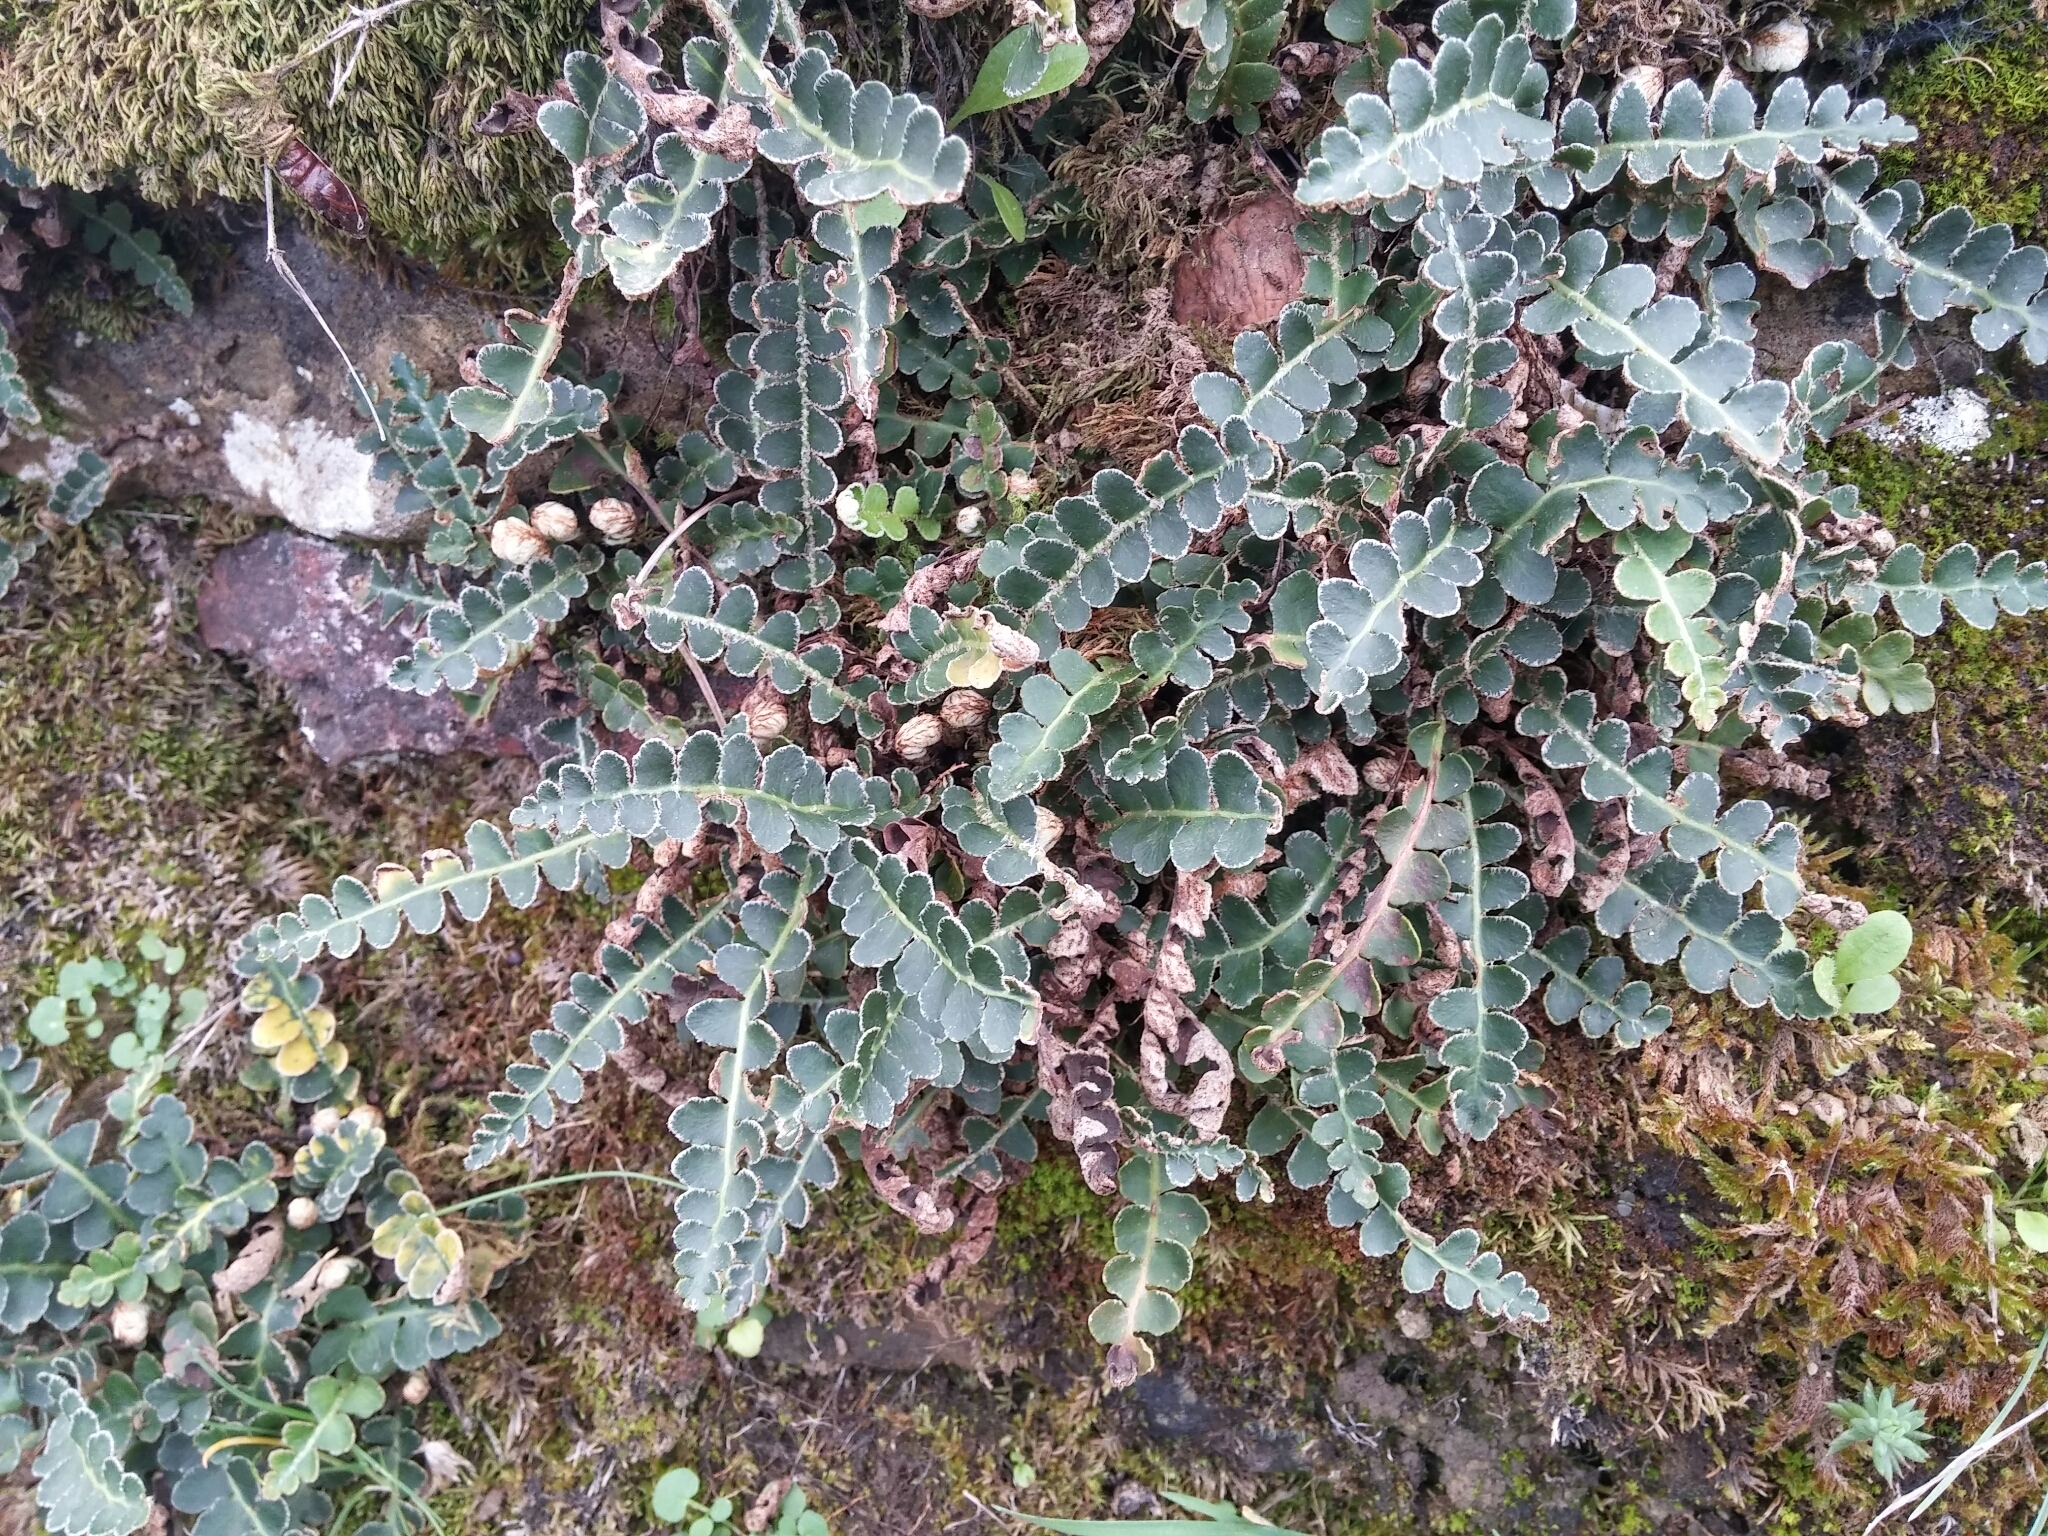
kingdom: Plantae
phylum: Tracheophyta
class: Polypodiopsida
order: Polypodiales
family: Aspleniaceae
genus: Asplenium
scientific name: Asplenium ceterach
